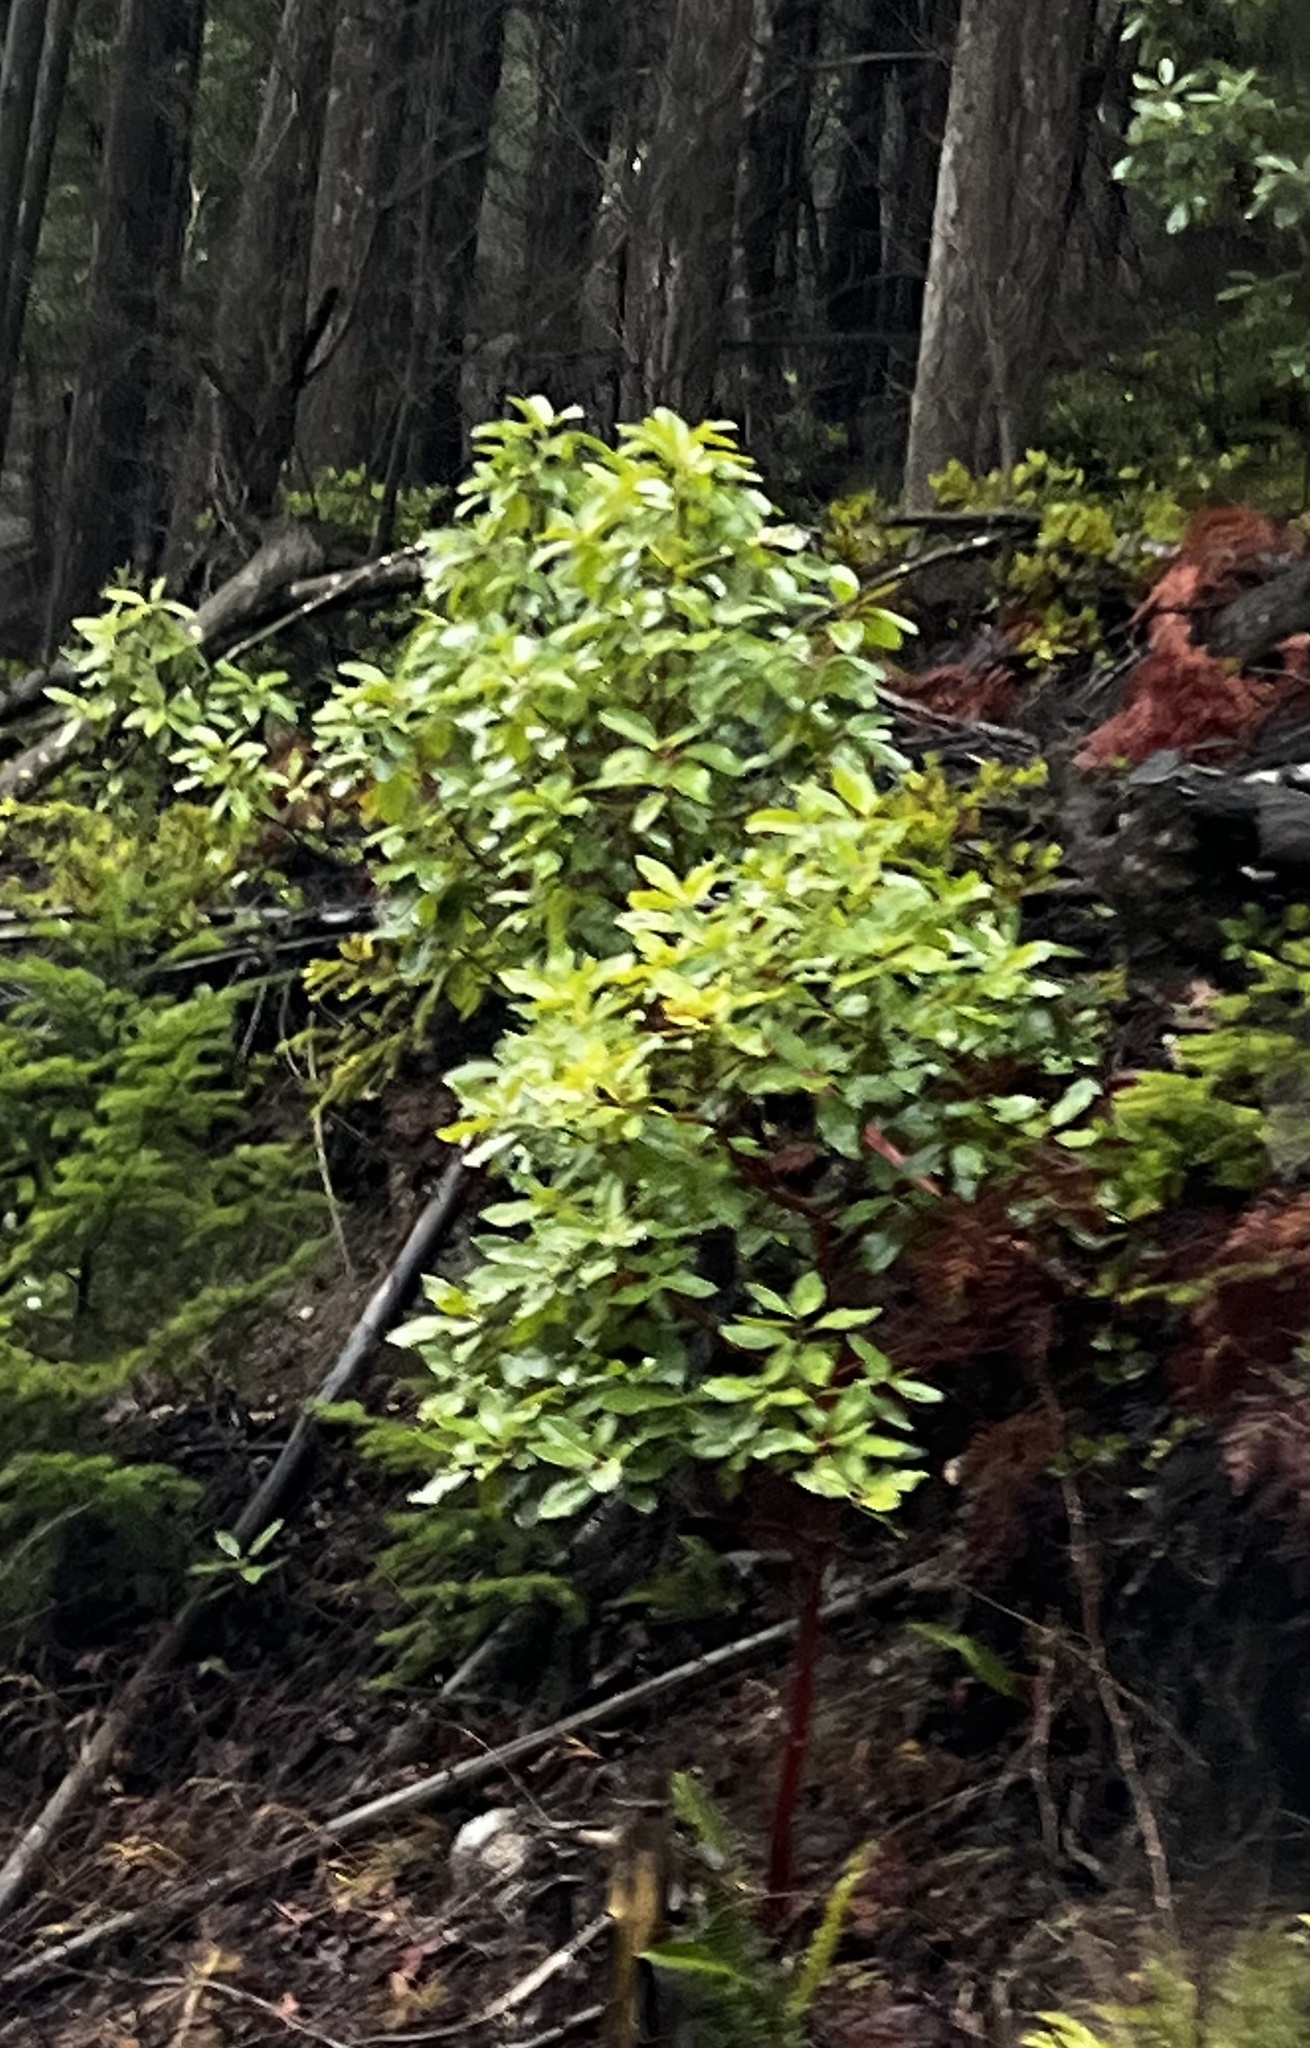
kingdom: Plantae
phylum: Tracheophyta
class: Magnoliopsida
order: Ericales
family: Ericaceae
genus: Arbutus
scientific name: Arbutus menziesii
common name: Pacific madrone
